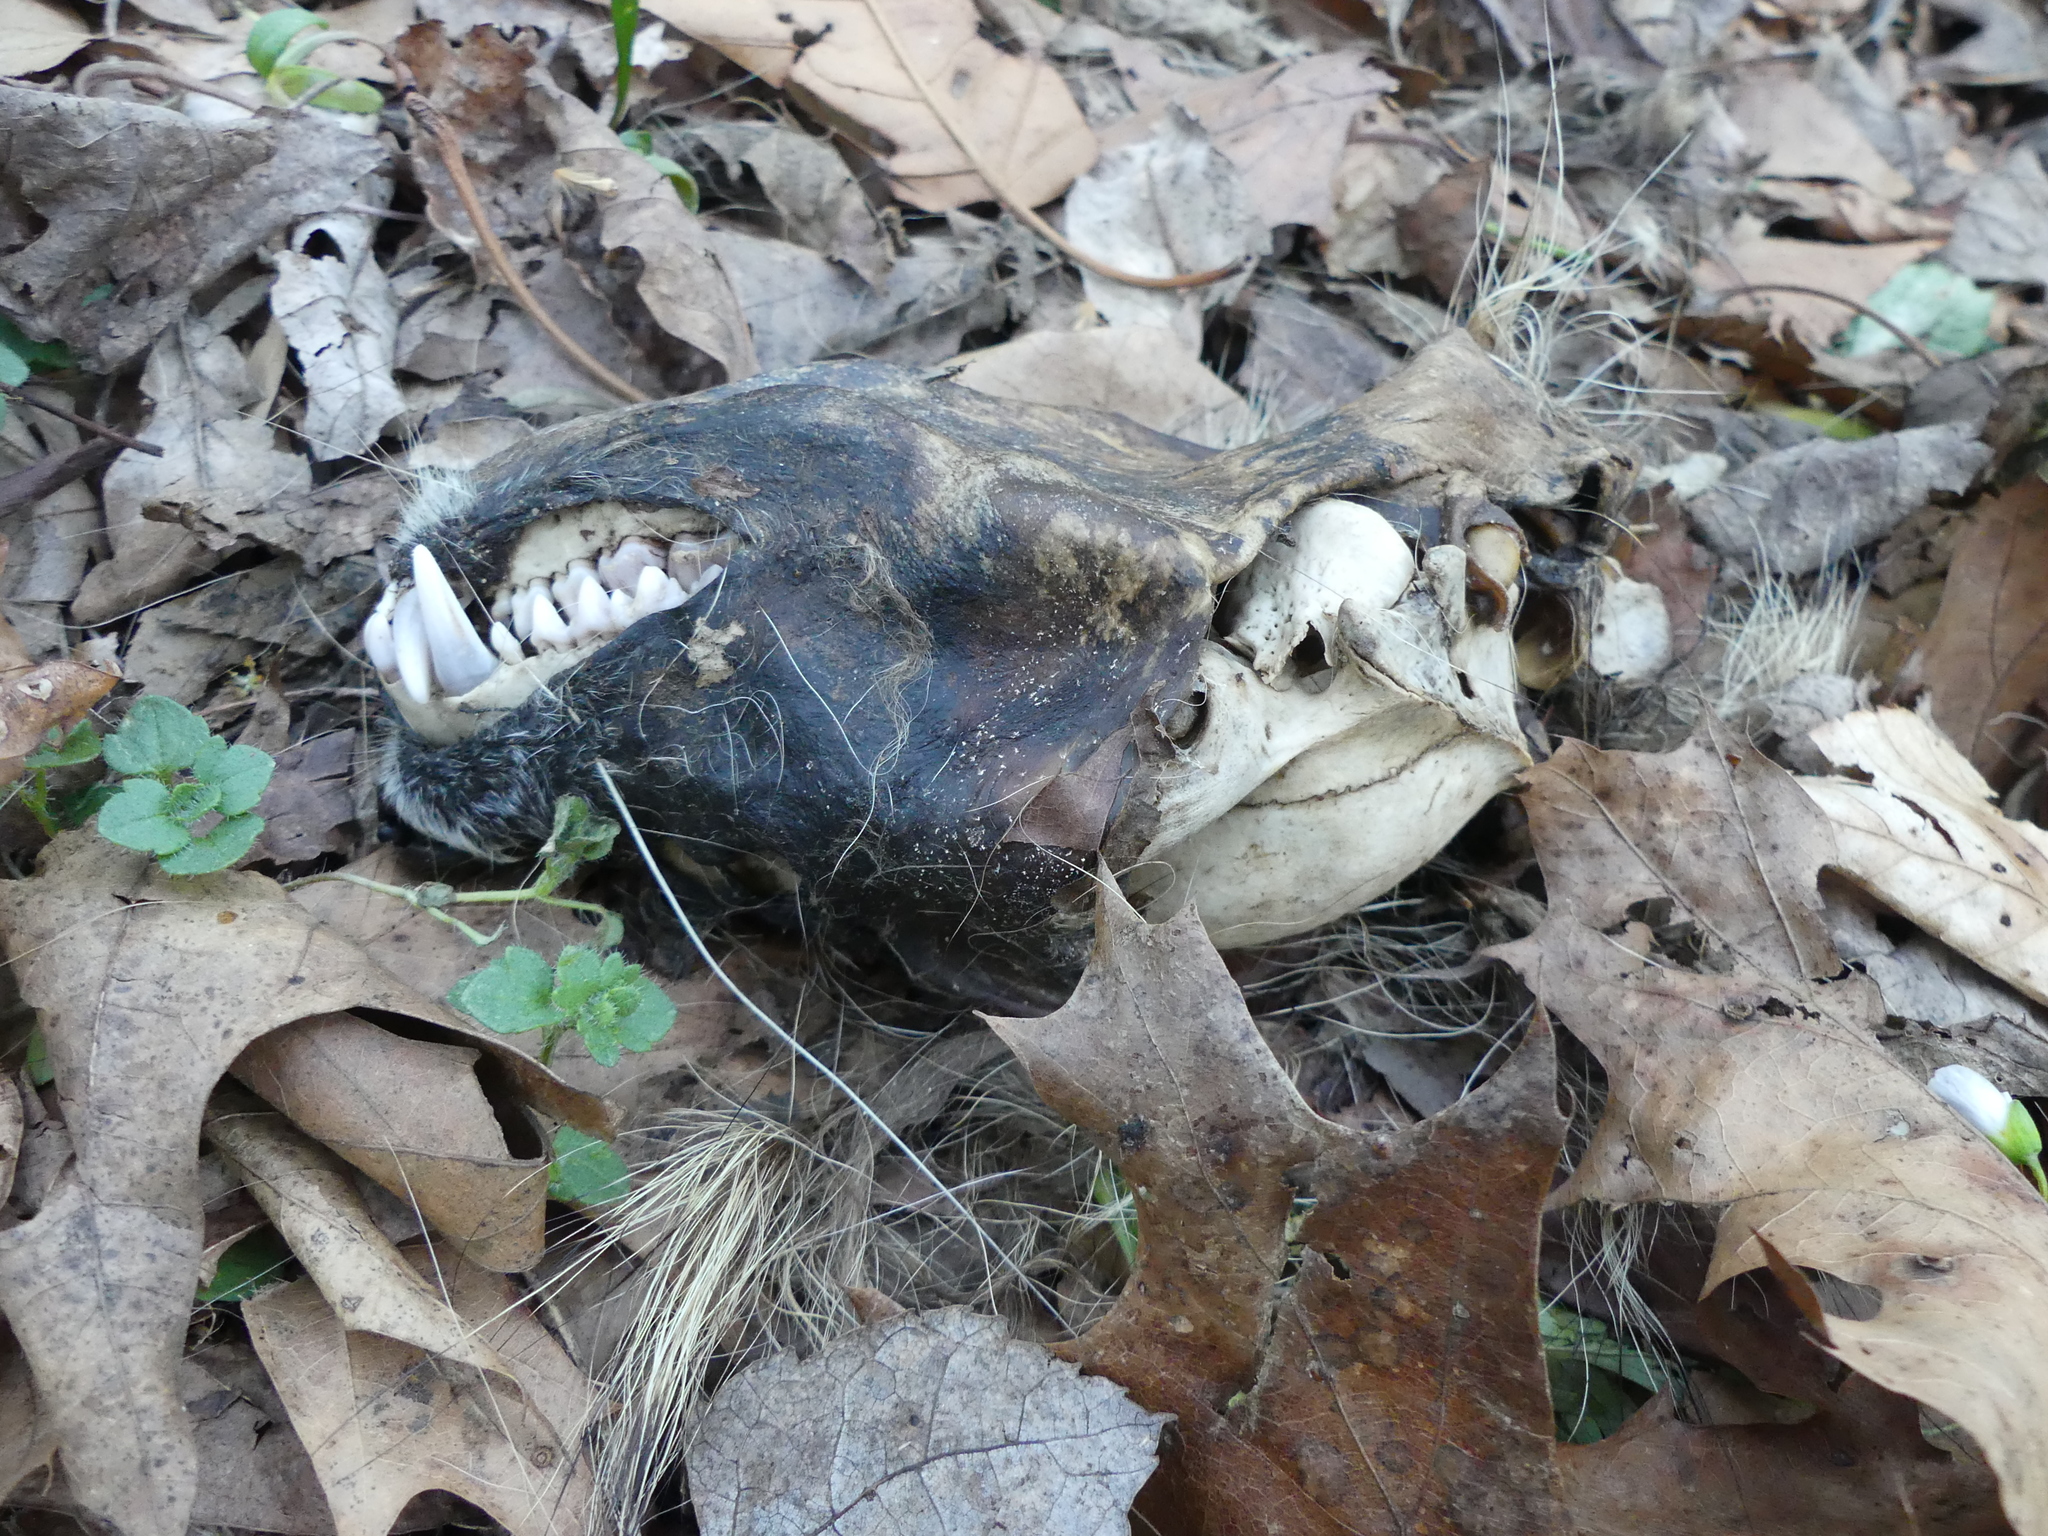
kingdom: Animalia
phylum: Chordata
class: Mammalia
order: Carnivora
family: Procyonidae
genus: Procyon
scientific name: Procyon lotor
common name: Raccoon
